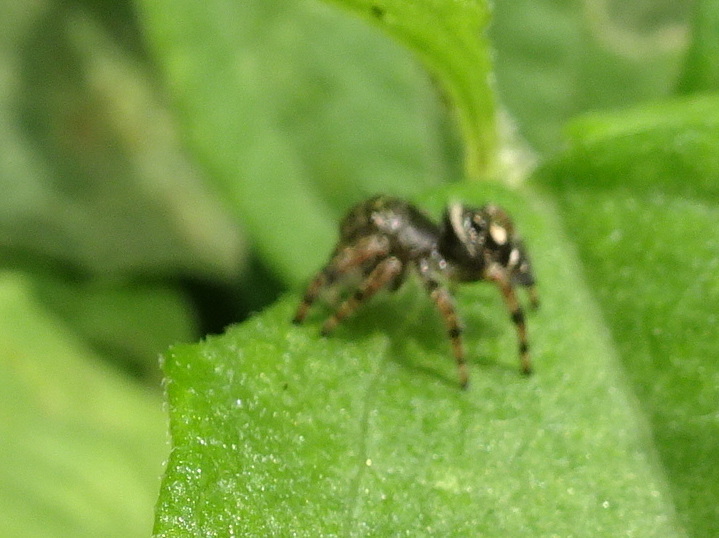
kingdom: Animalia
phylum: Arthropoda
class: Arachnida
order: Araneae
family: Salticidae
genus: Phidippus
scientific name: Phidippus audax
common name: Bold jumper
